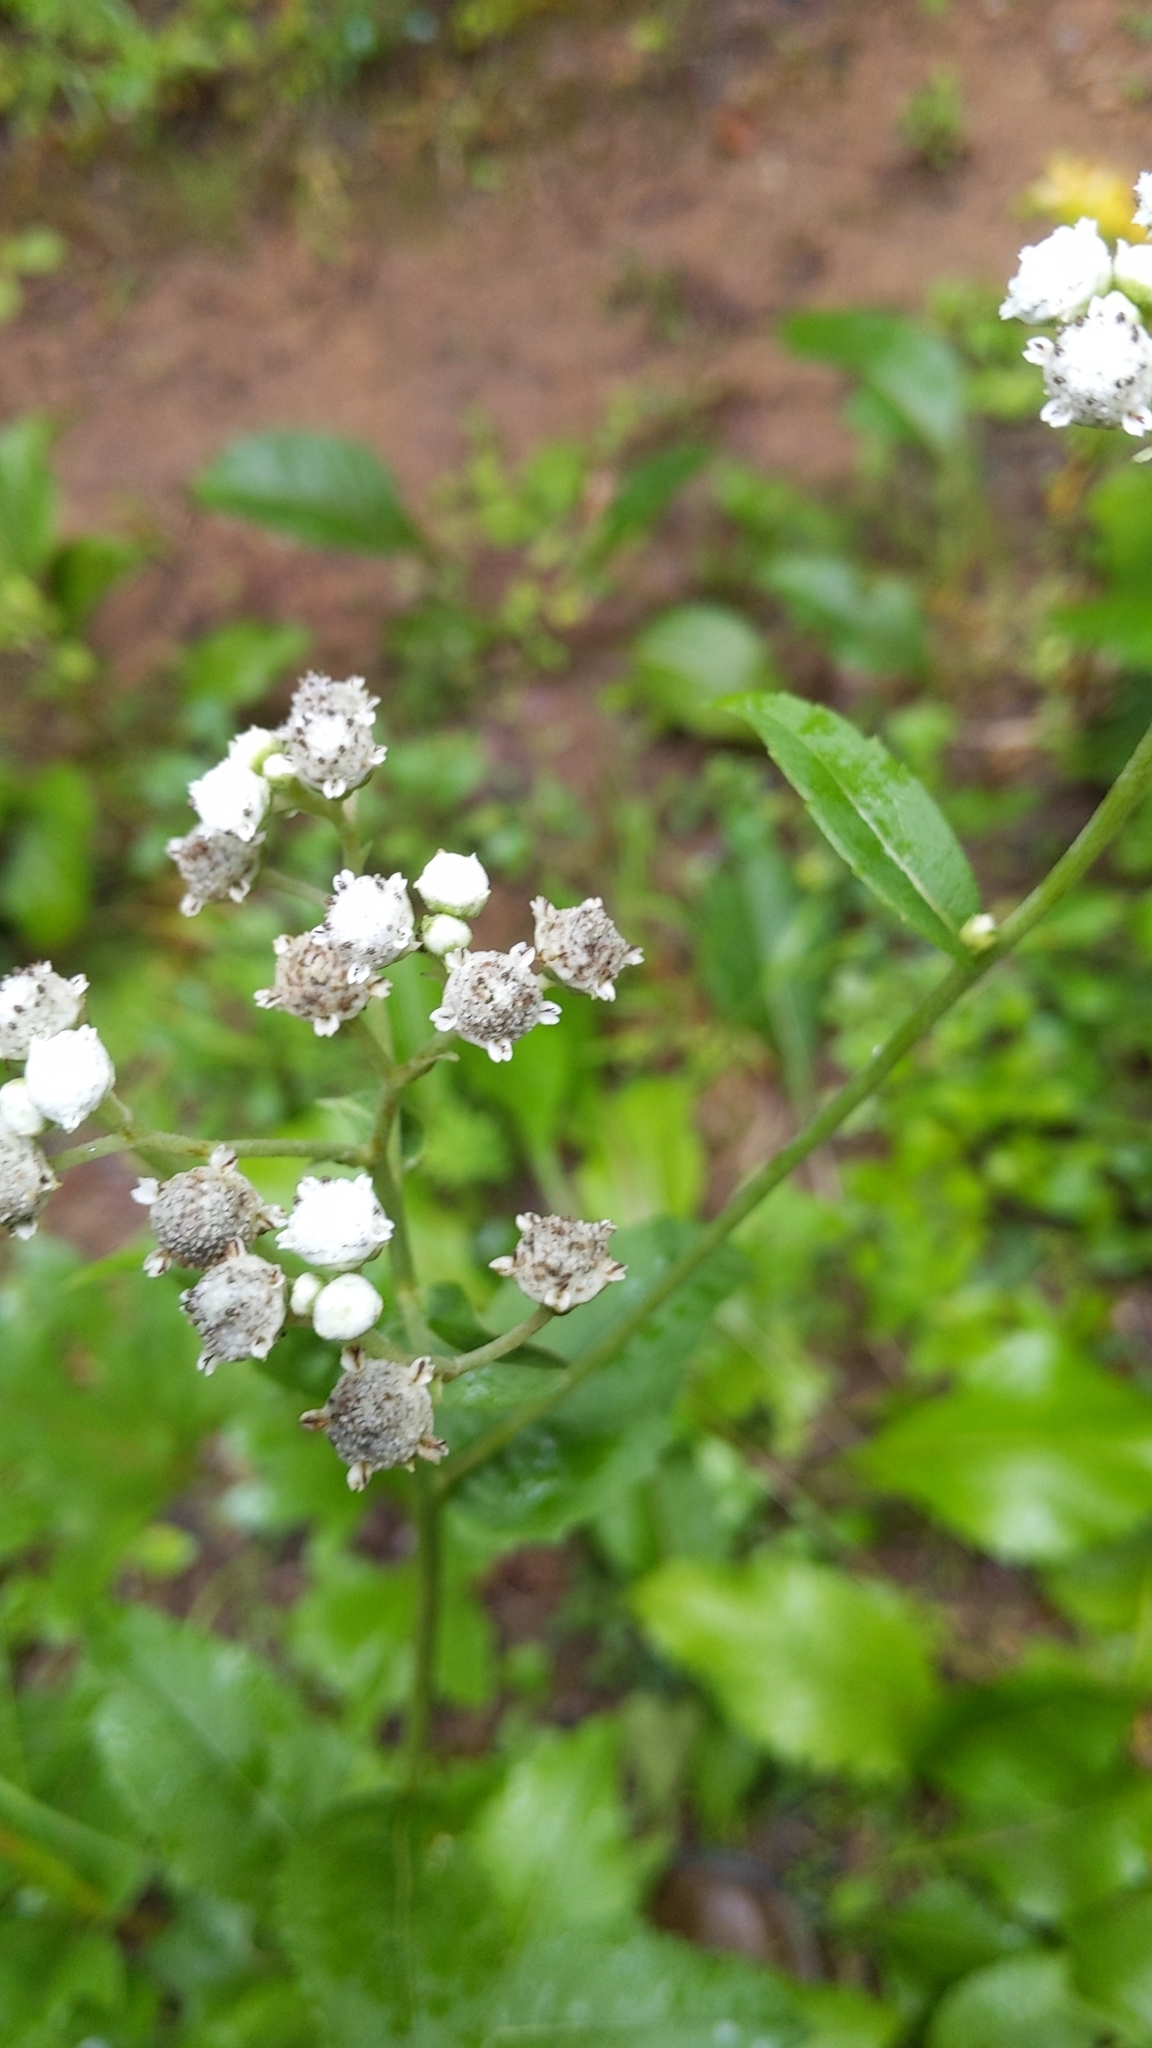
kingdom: Plantae
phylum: Tracheophyta
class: Magnoliopsida
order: Asterales
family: Asteraceae
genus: Parthenium
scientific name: Parthenium integrifolium
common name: American feverfew
